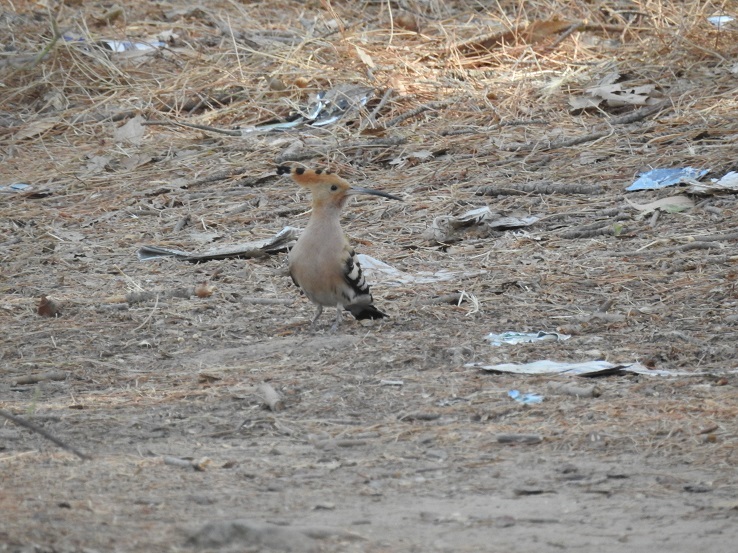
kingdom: Animalia
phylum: Chordata
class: Aves
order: Bucerotiformes
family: Upupidae
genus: Upupa
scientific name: Upupa epops
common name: Eurasian hoopoe
